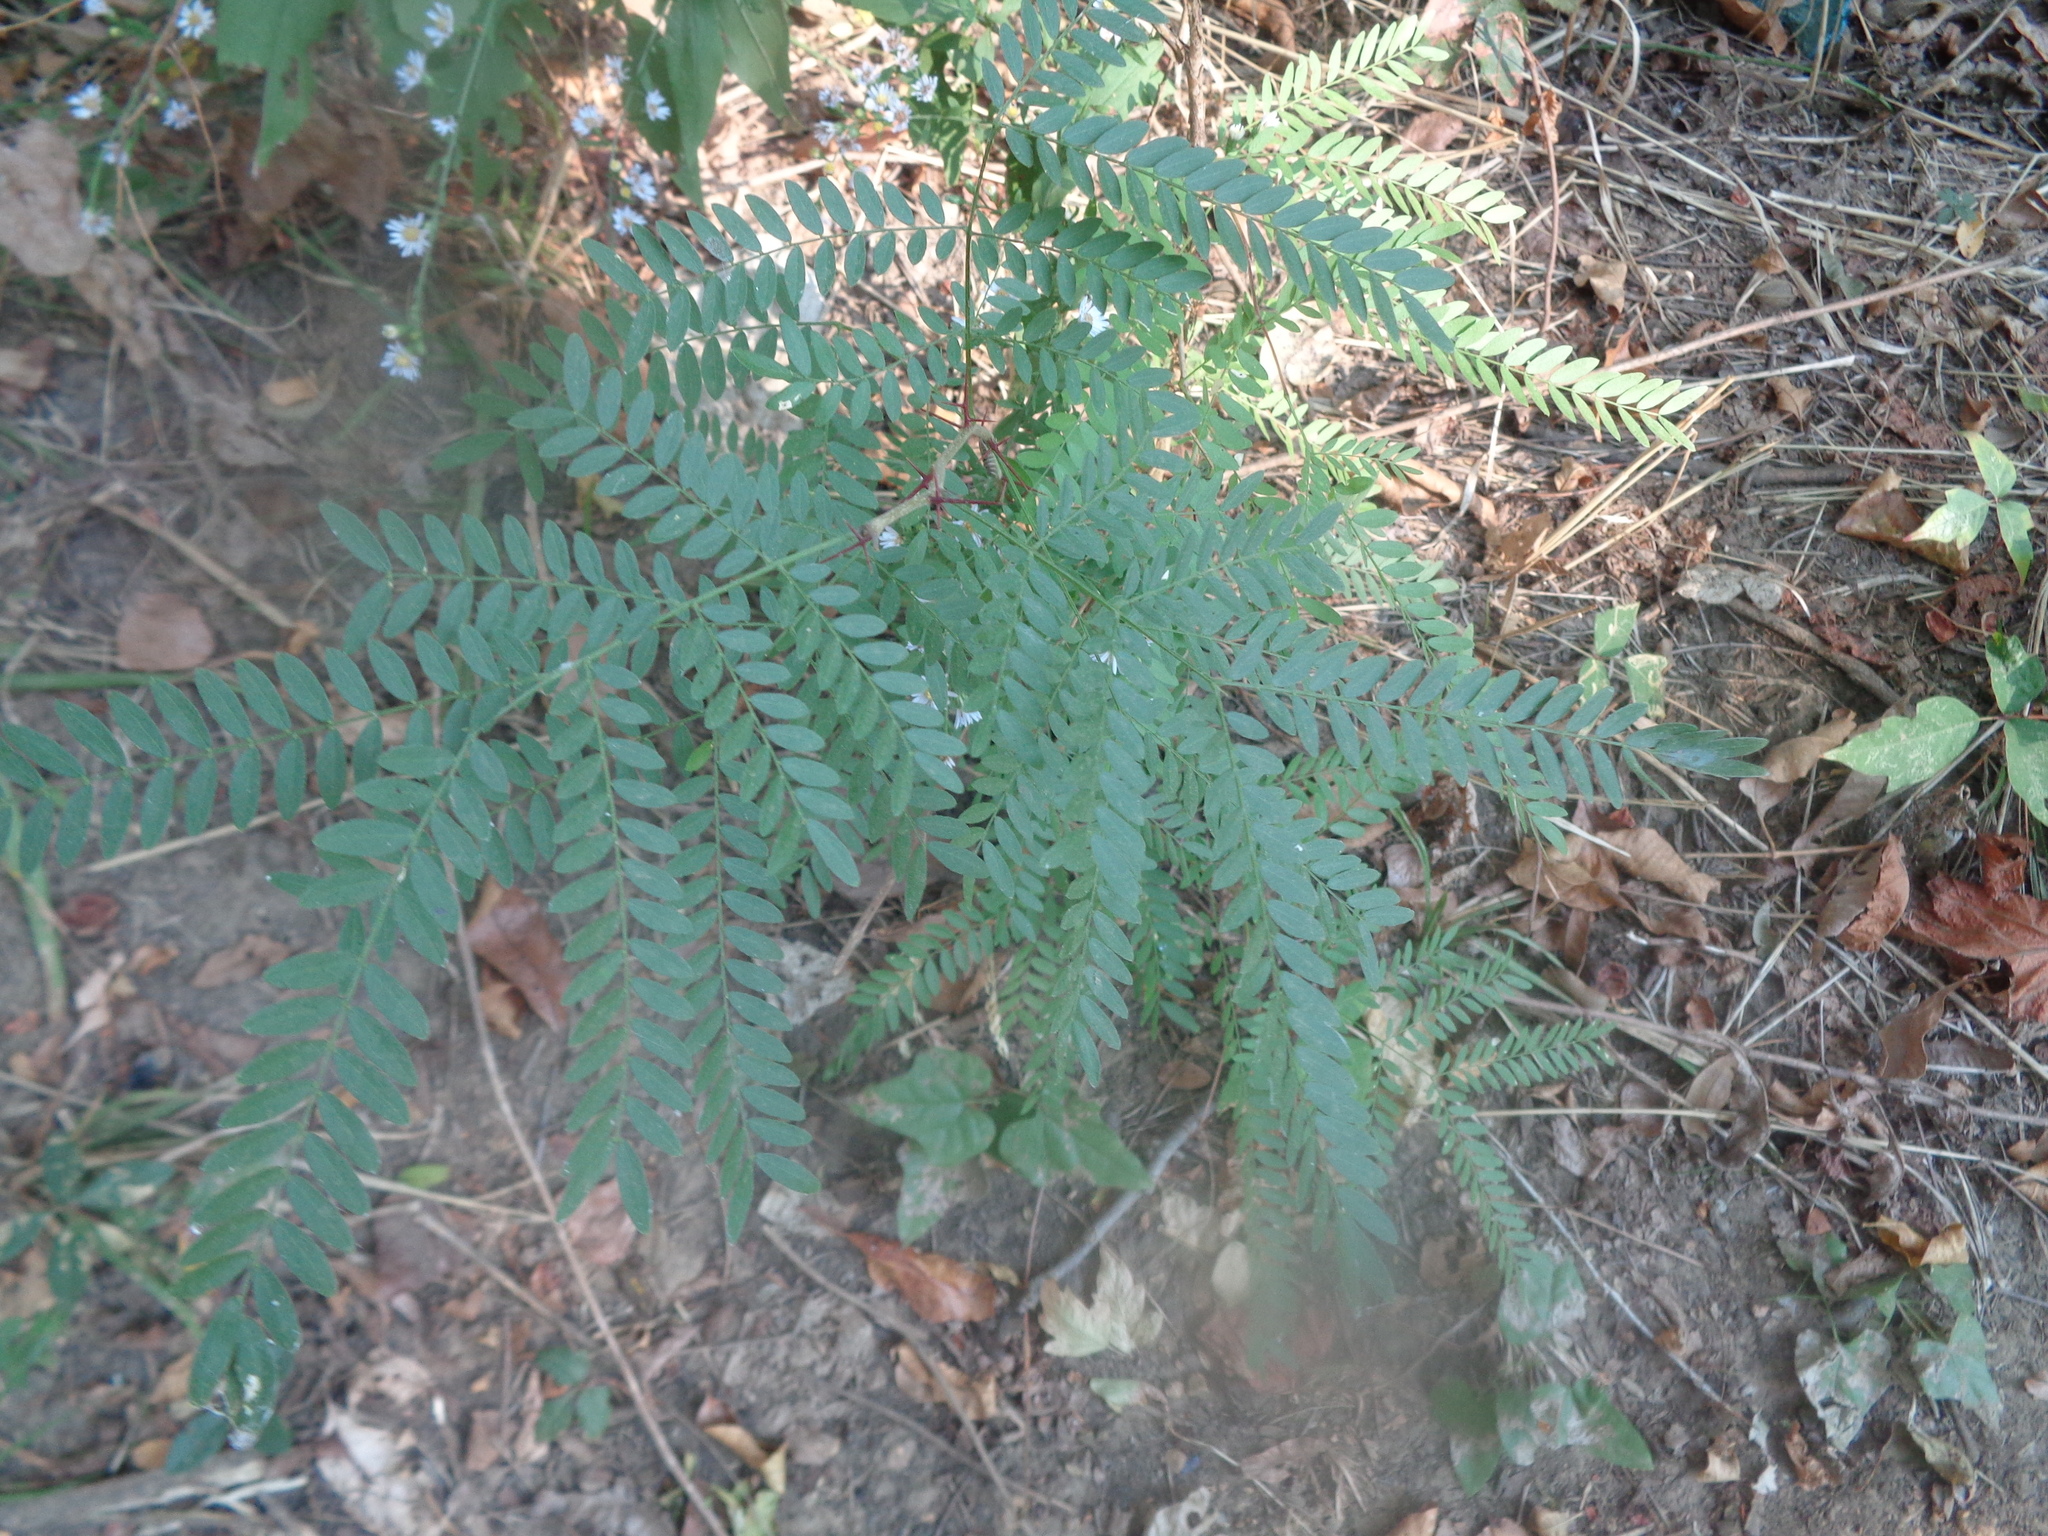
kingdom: Plantae
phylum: Tracheophyta
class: Magnoliopsida
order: Fabales
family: Fabaceae
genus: Gleditsia
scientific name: Gleditsia triacanthos
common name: Common honeylocust
